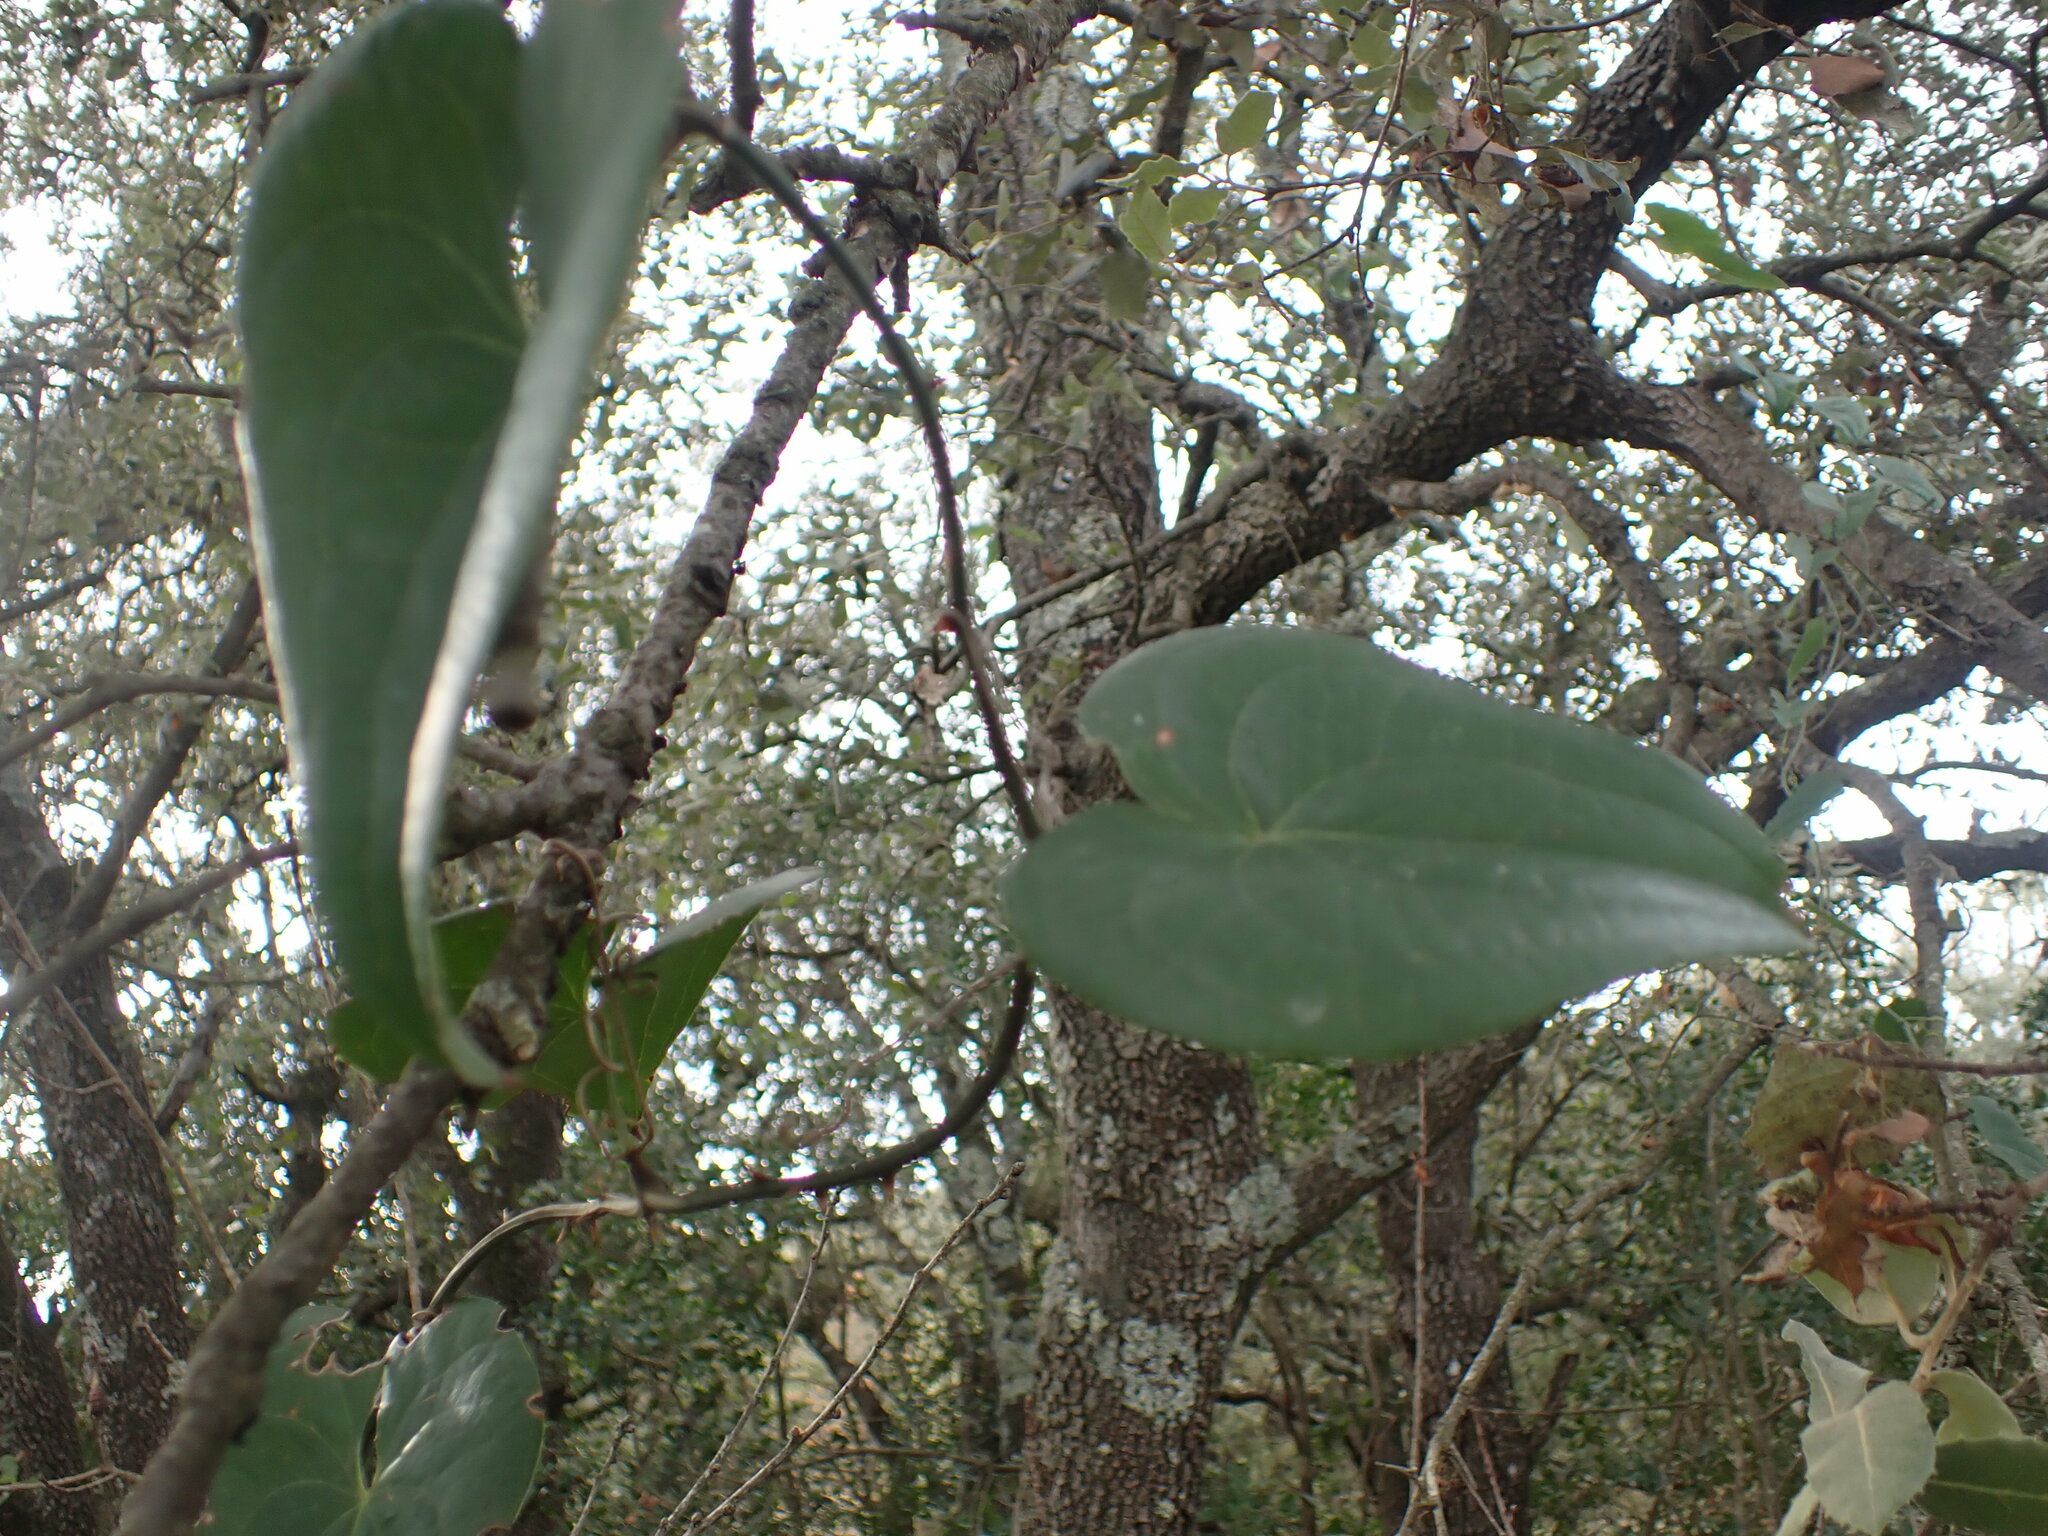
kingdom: Plantae
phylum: Tracheophyta
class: Liliopsida
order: Liliales
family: Smilacaceae
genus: Smilax
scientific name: Smilax aspera
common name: Common smilax
